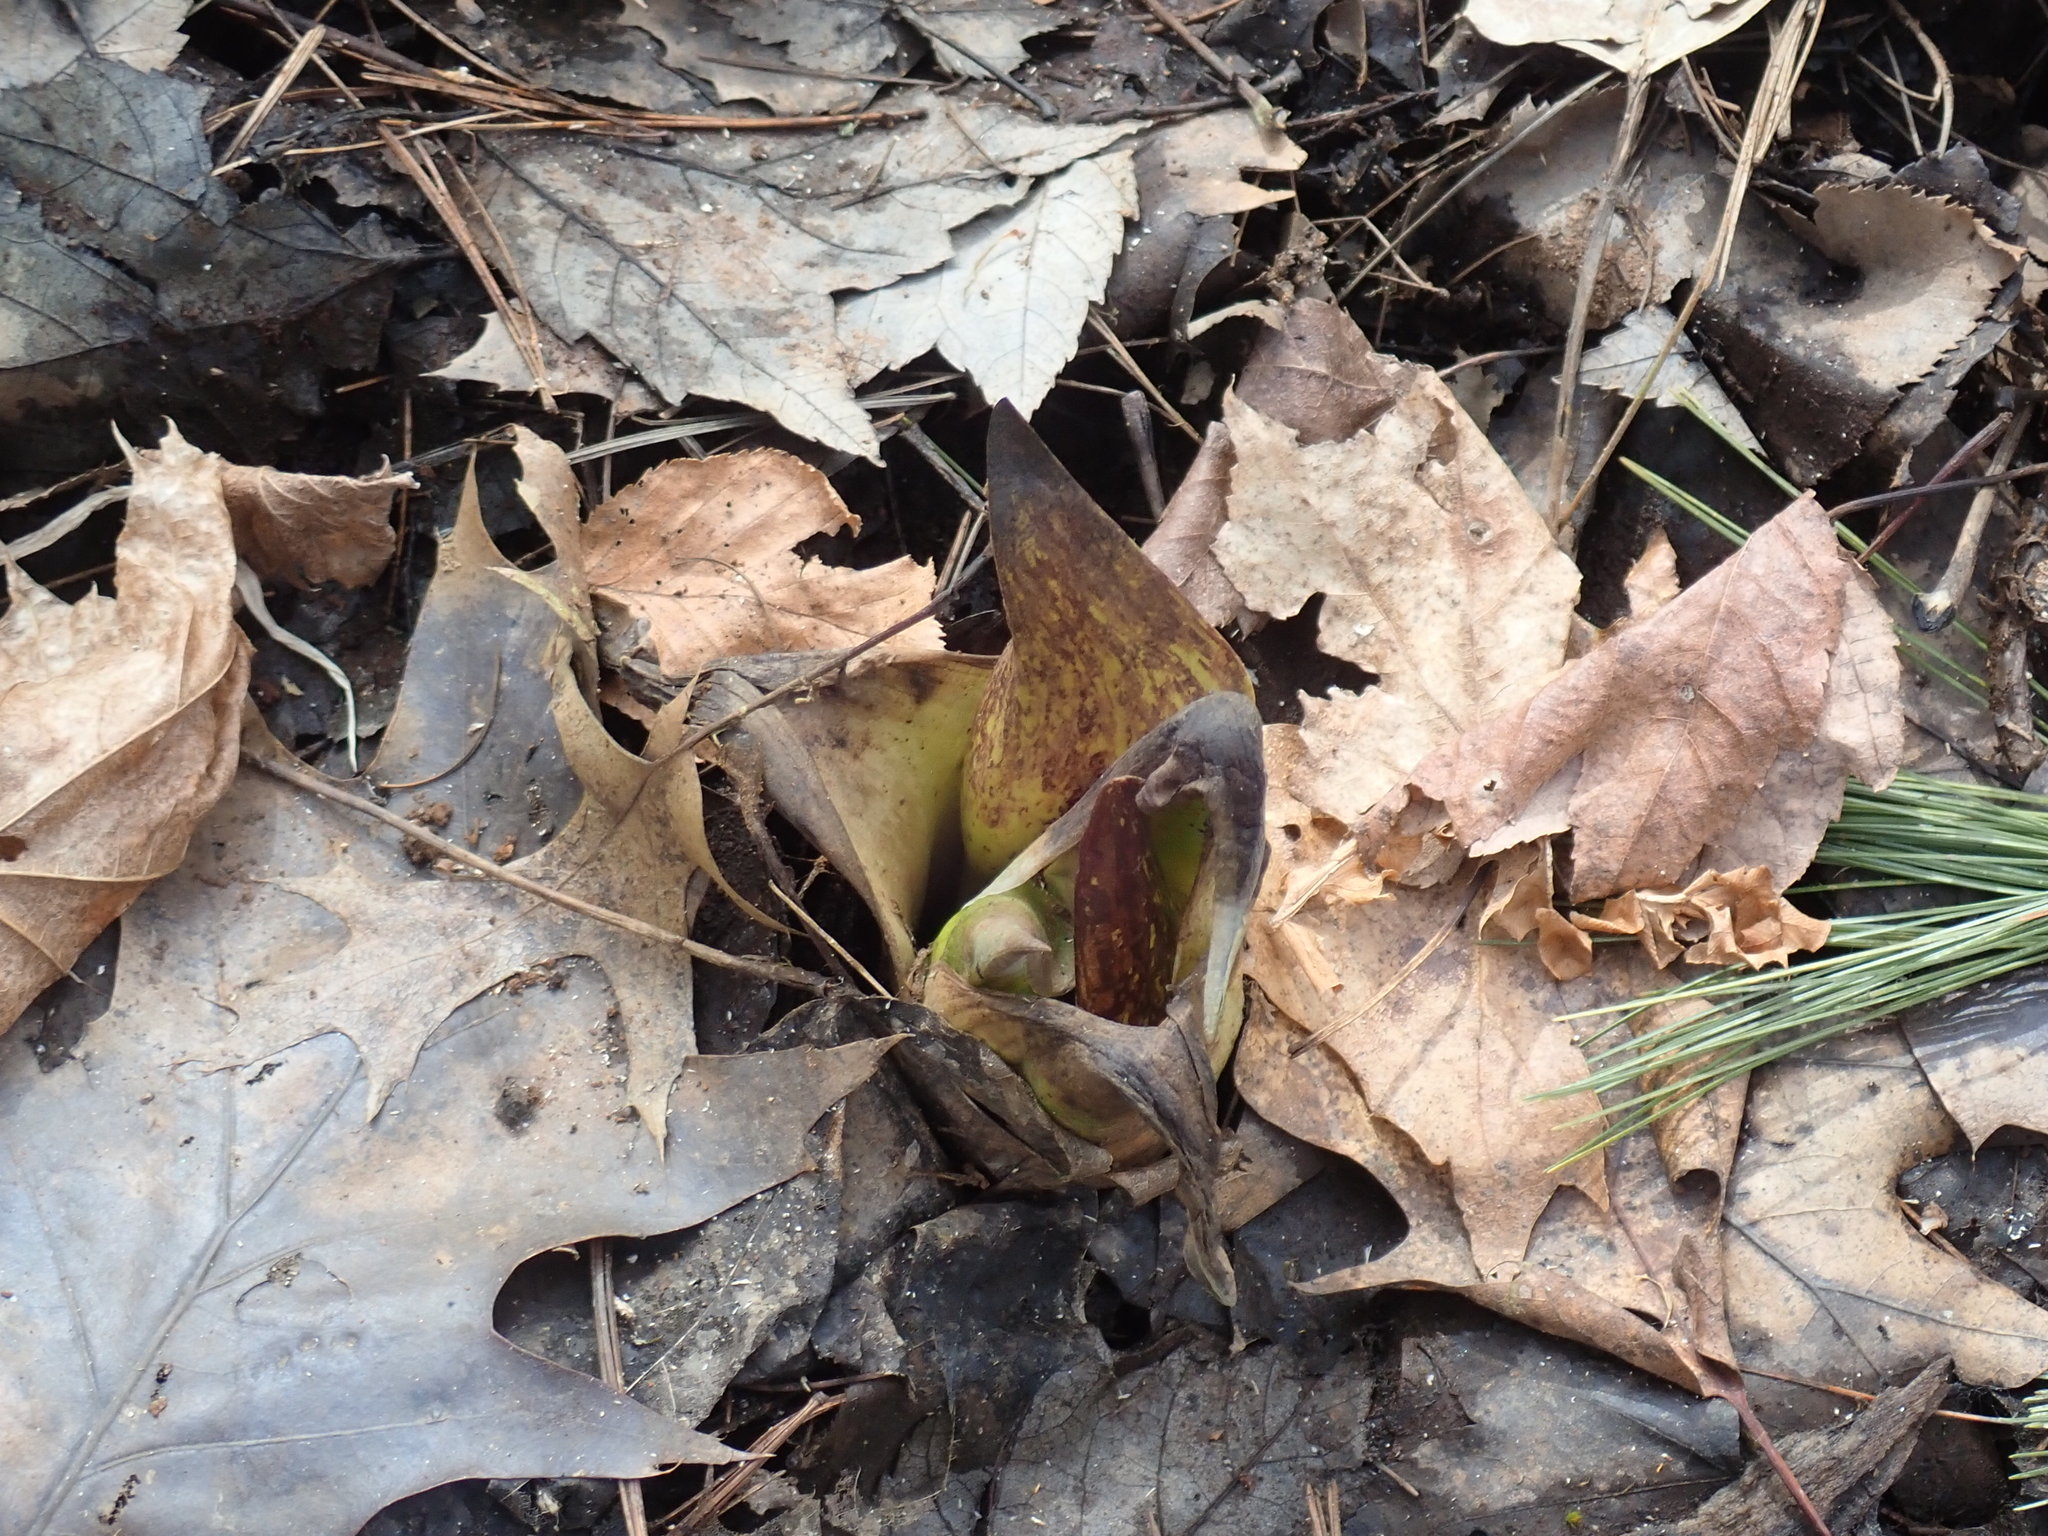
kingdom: Plantae
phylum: Tracheophyta
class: Liliopsida
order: Alismatales
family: Araceae
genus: Symplocarpus
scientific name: Symplocarpus foetidus
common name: Eastern skunk cabbage
